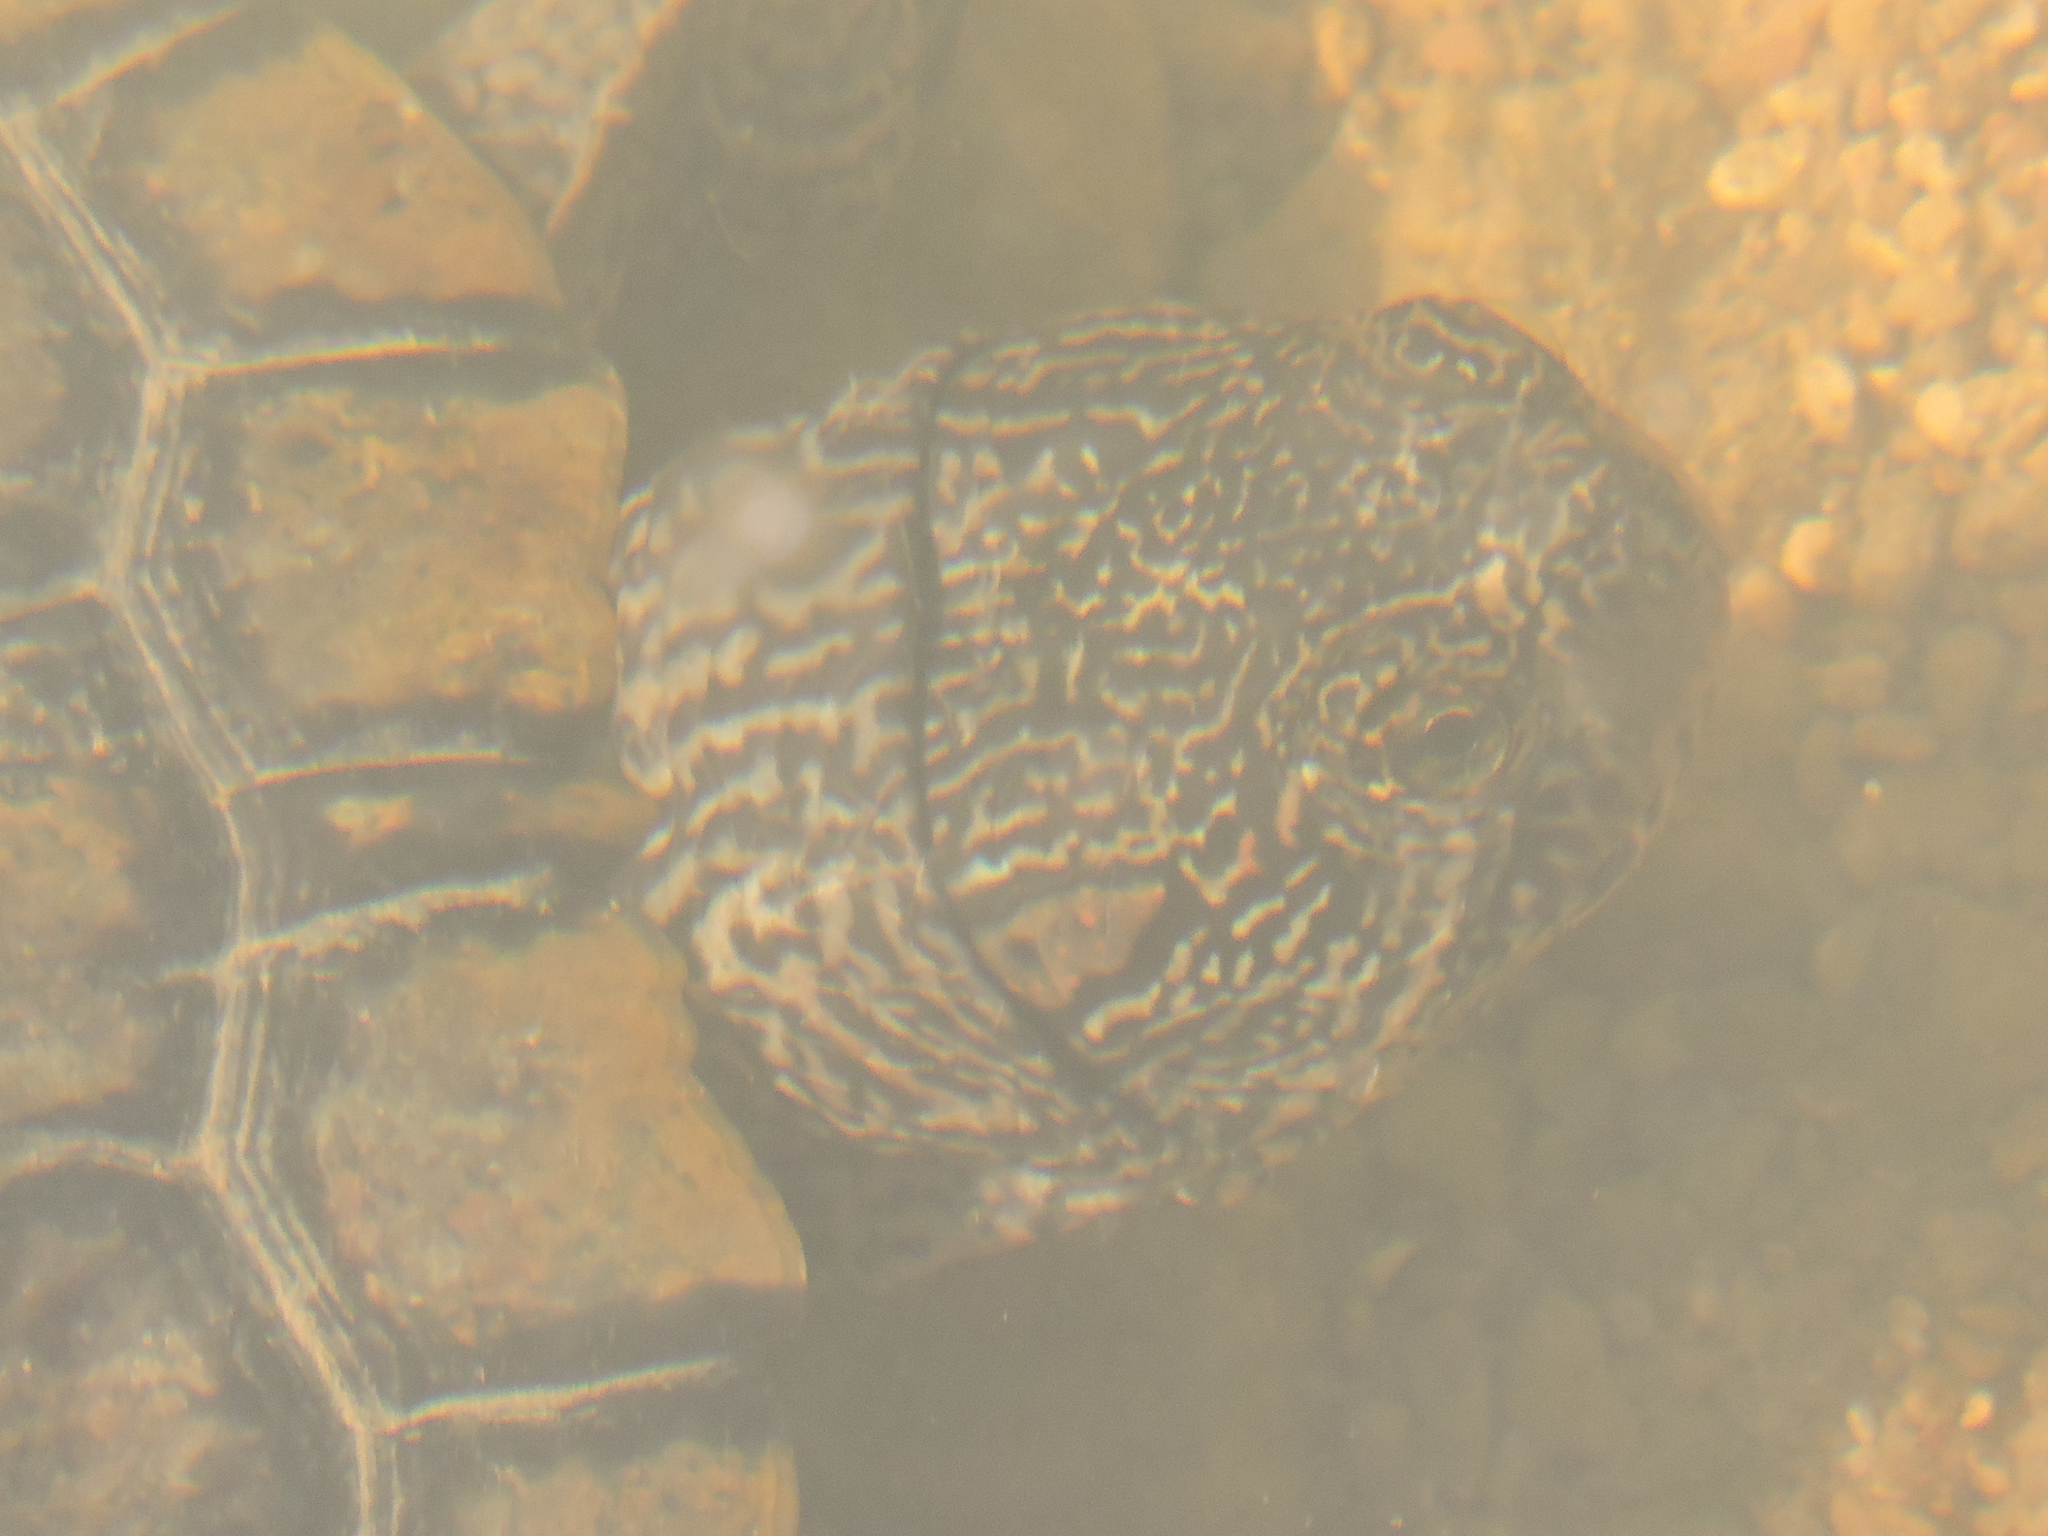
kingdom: Animalia
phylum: Chordata
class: Testudines
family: Emydidae
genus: Trachemys
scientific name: Trachemys scripta
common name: Slider
